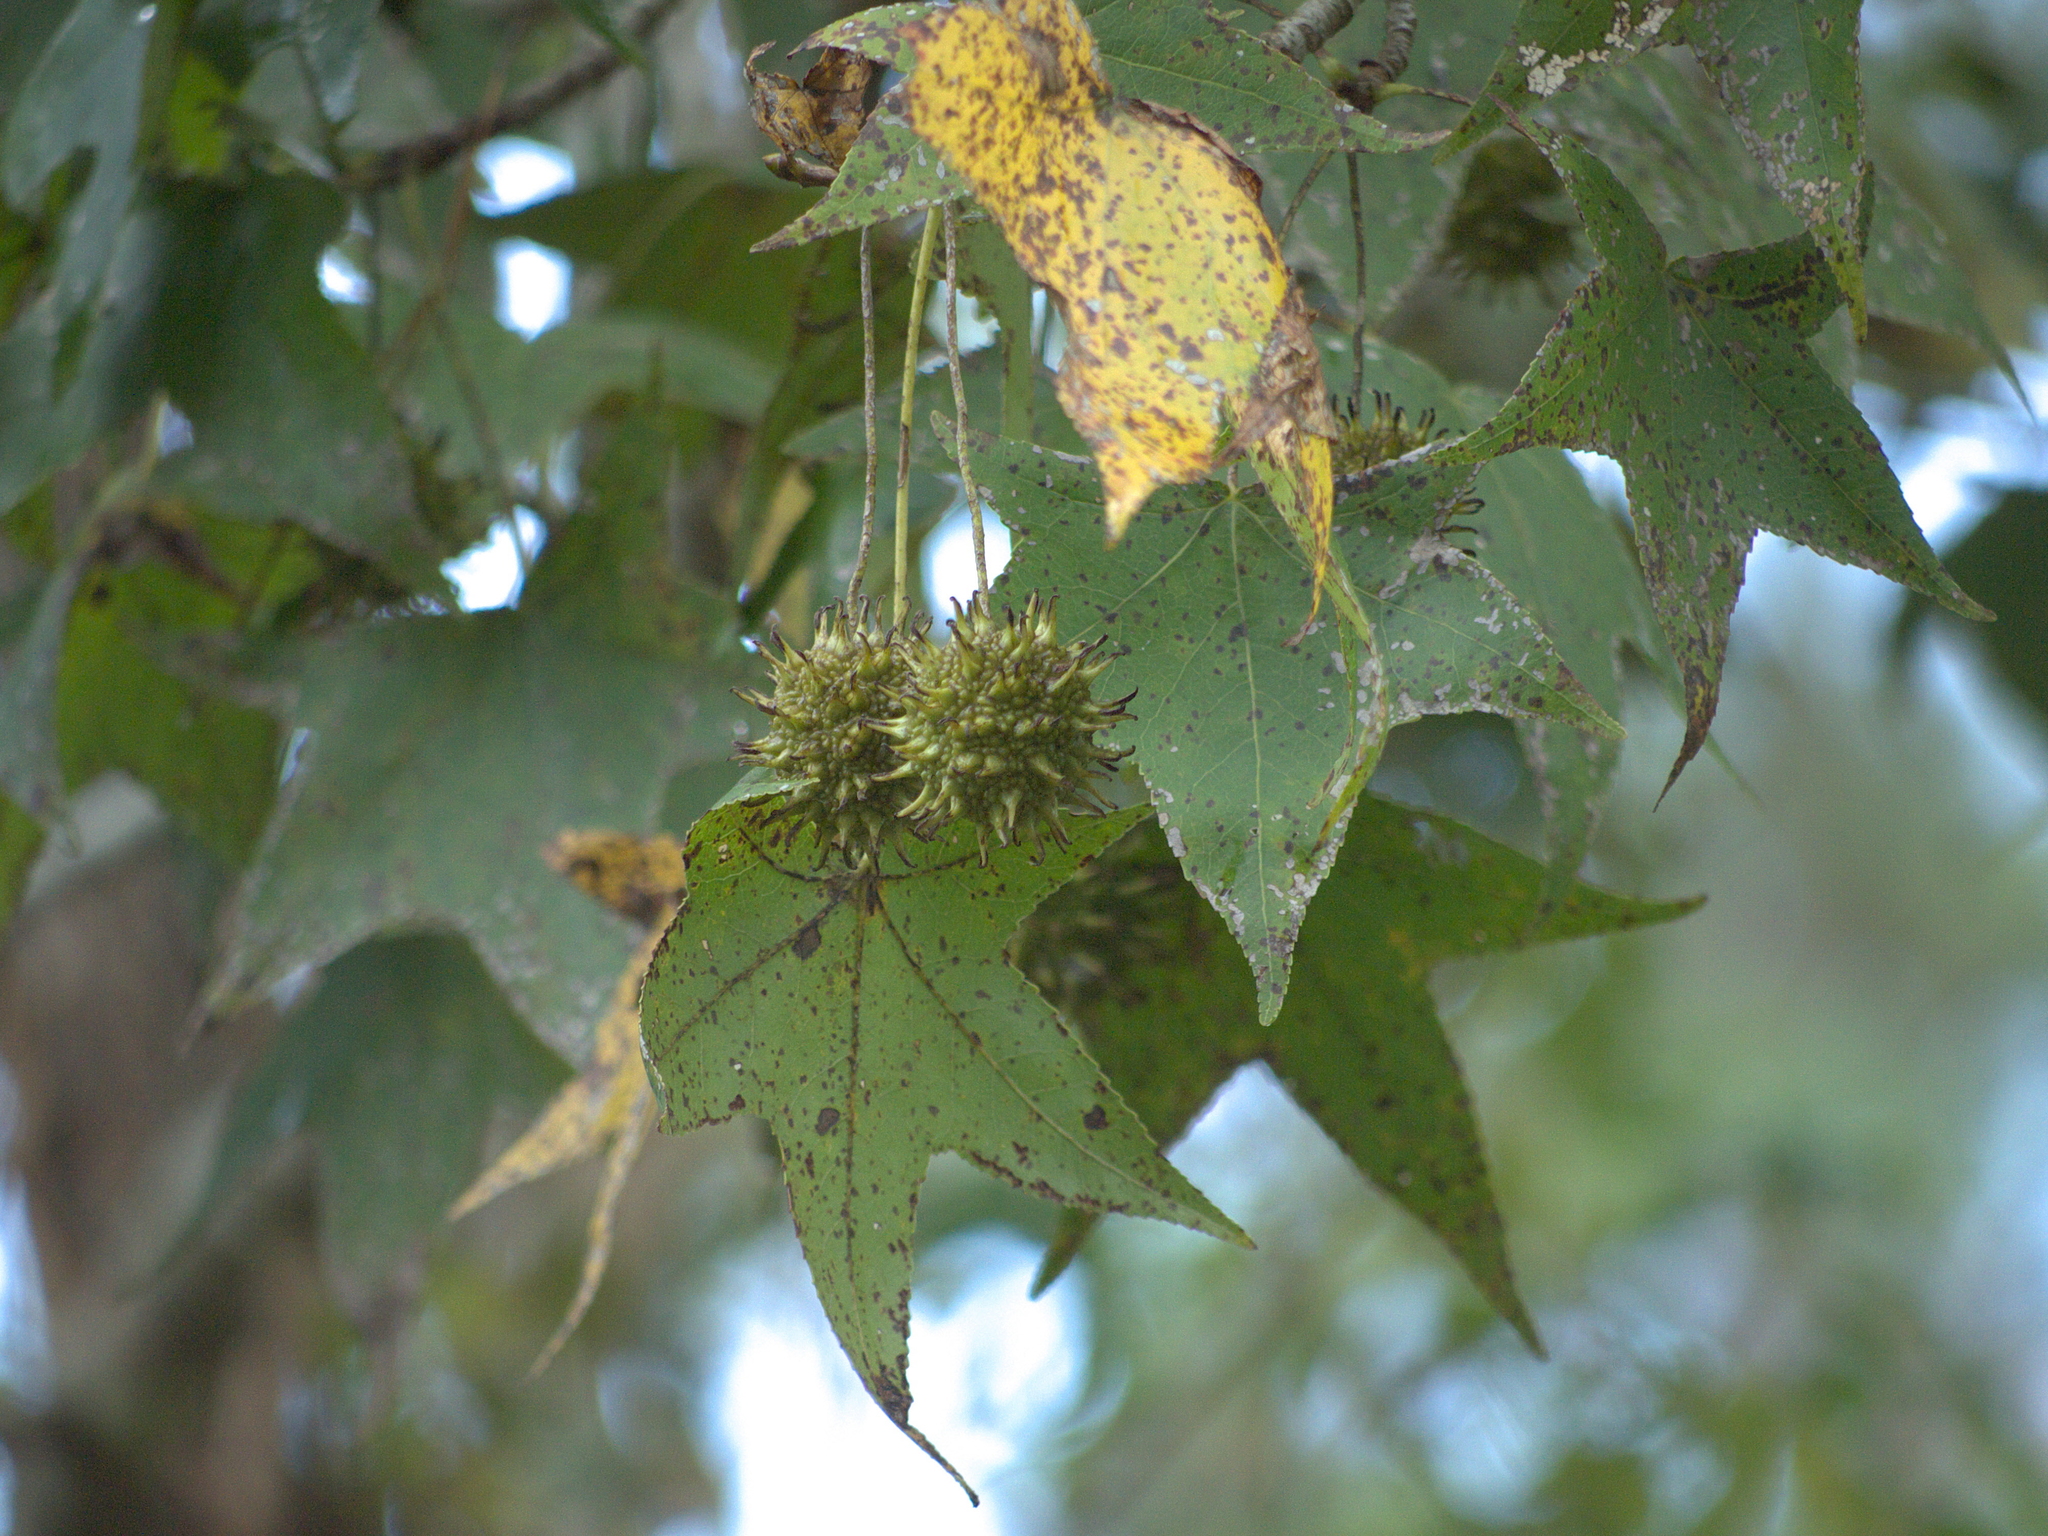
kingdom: Plantae
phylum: Tracheophyta
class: Magnoliopsida
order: Saxifragales
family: Altingiaceae
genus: Liquidambar
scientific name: Liquidambar styraciflua
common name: Sweet gum
